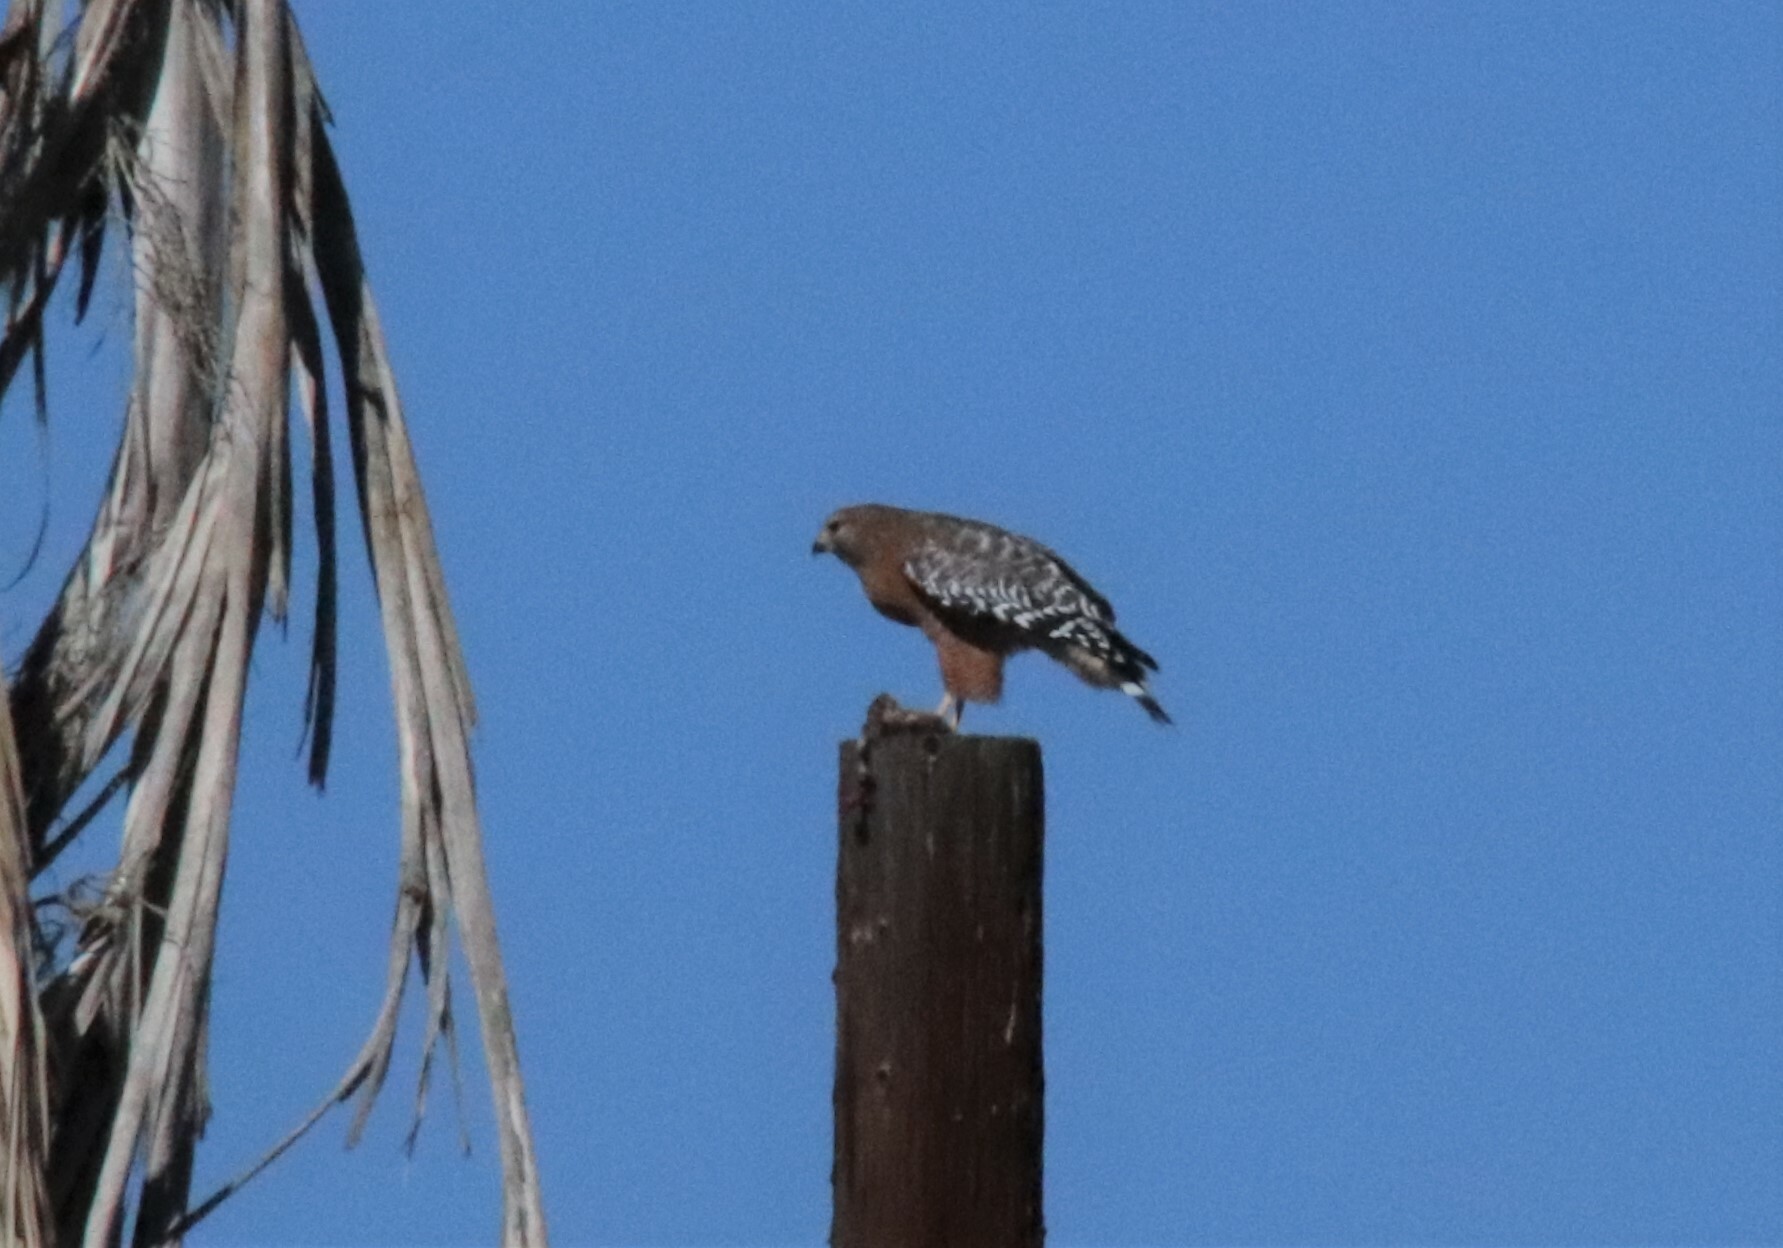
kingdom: Animalia
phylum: Chordata
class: Aves
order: Accipitriformes
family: Accipitridae
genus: Buteo
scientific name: Buteo lineatus
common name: Red-shouldered hawk
